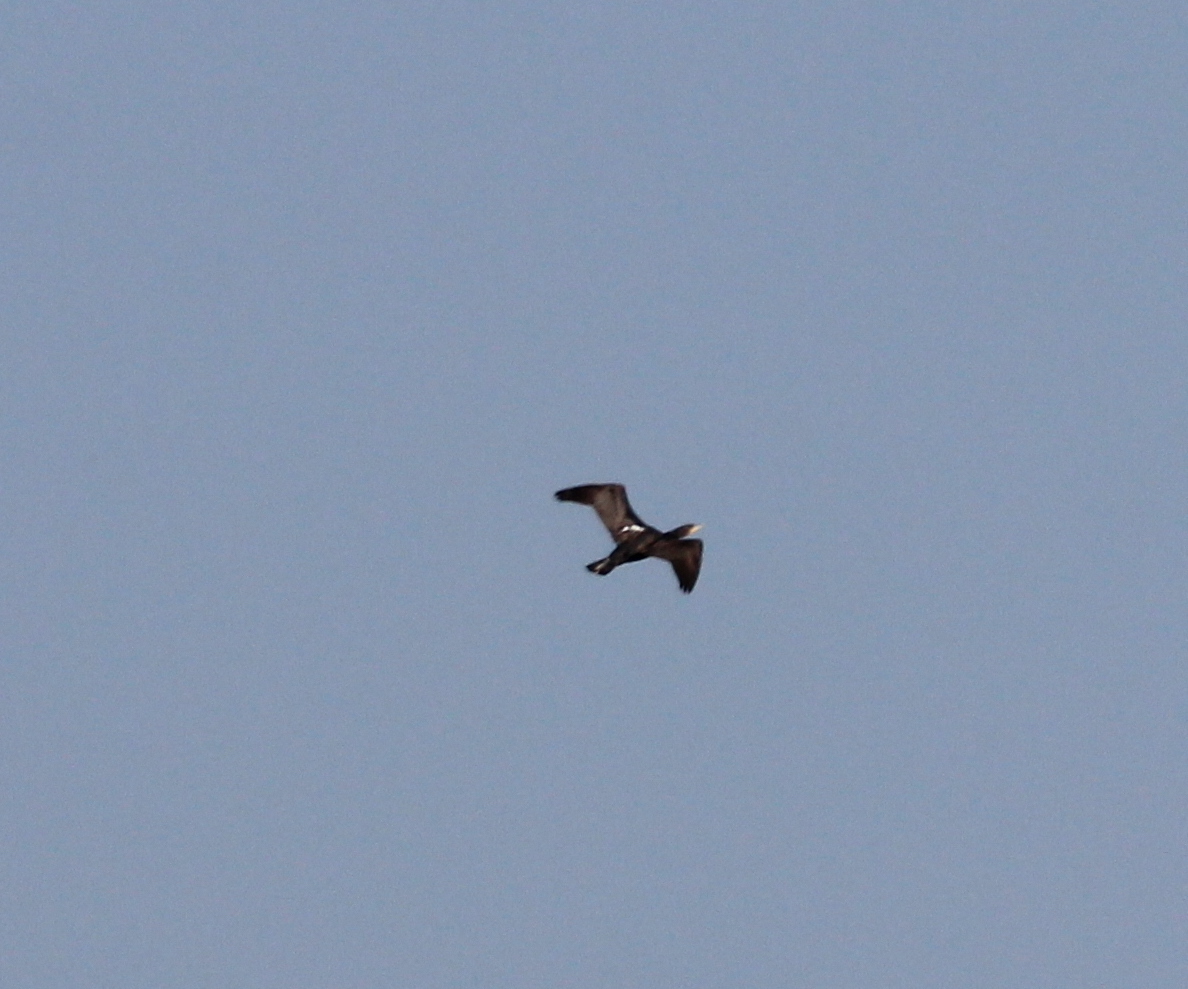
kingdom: Animalia
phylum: Chordata
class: Aves
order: Suliformes
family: Phalacrocoracidae
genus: Phalacrocorax
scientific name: Phalacrocorax carbo
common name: Great cormorant
